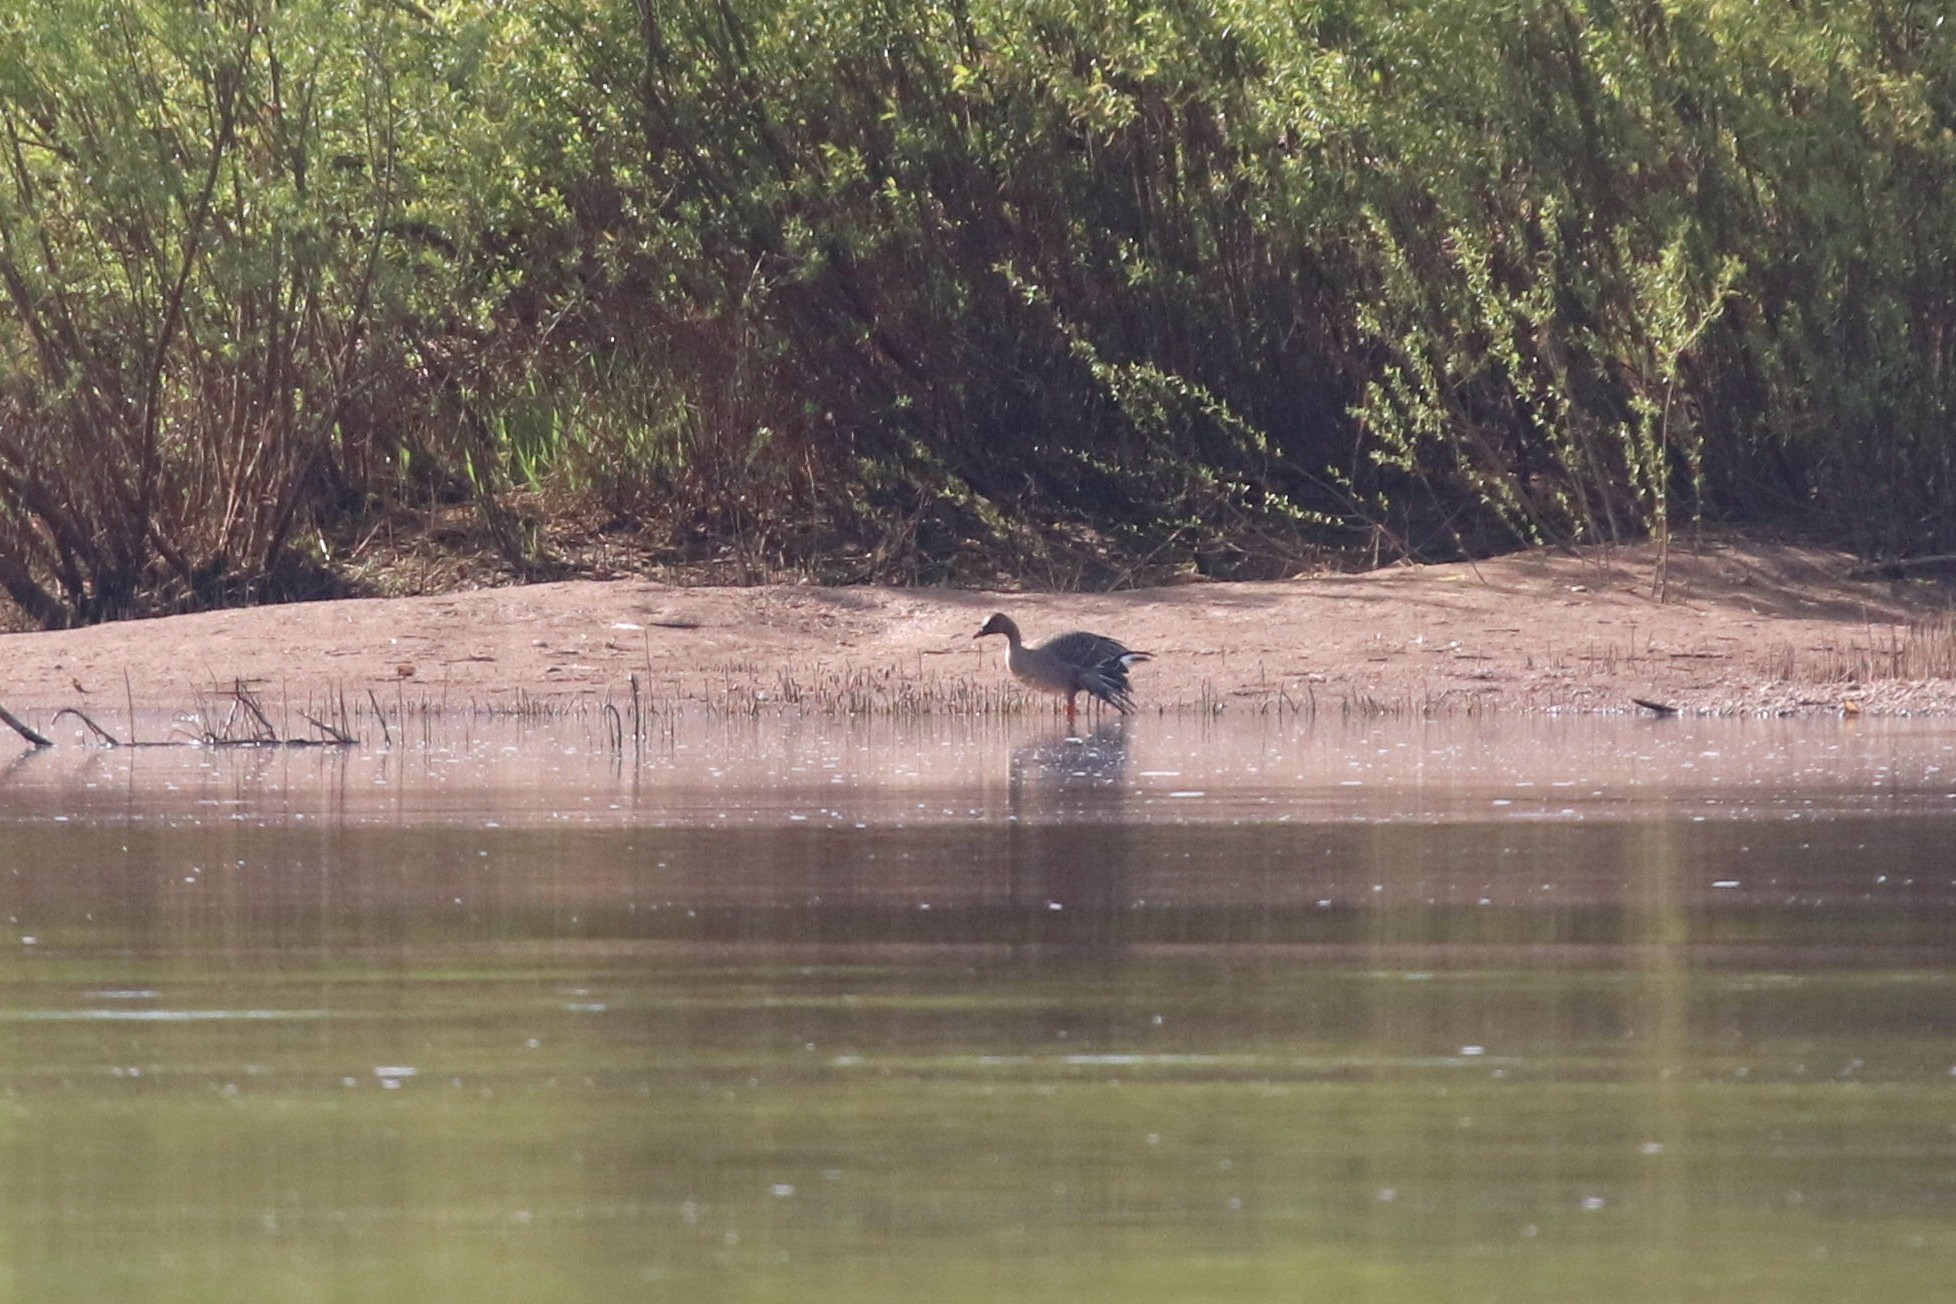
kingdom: Animalia
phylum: Chordata
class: Aves
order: Anseriformes
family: Anatidae
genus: Anser
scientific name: Anser fabalis
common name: Bean goose
